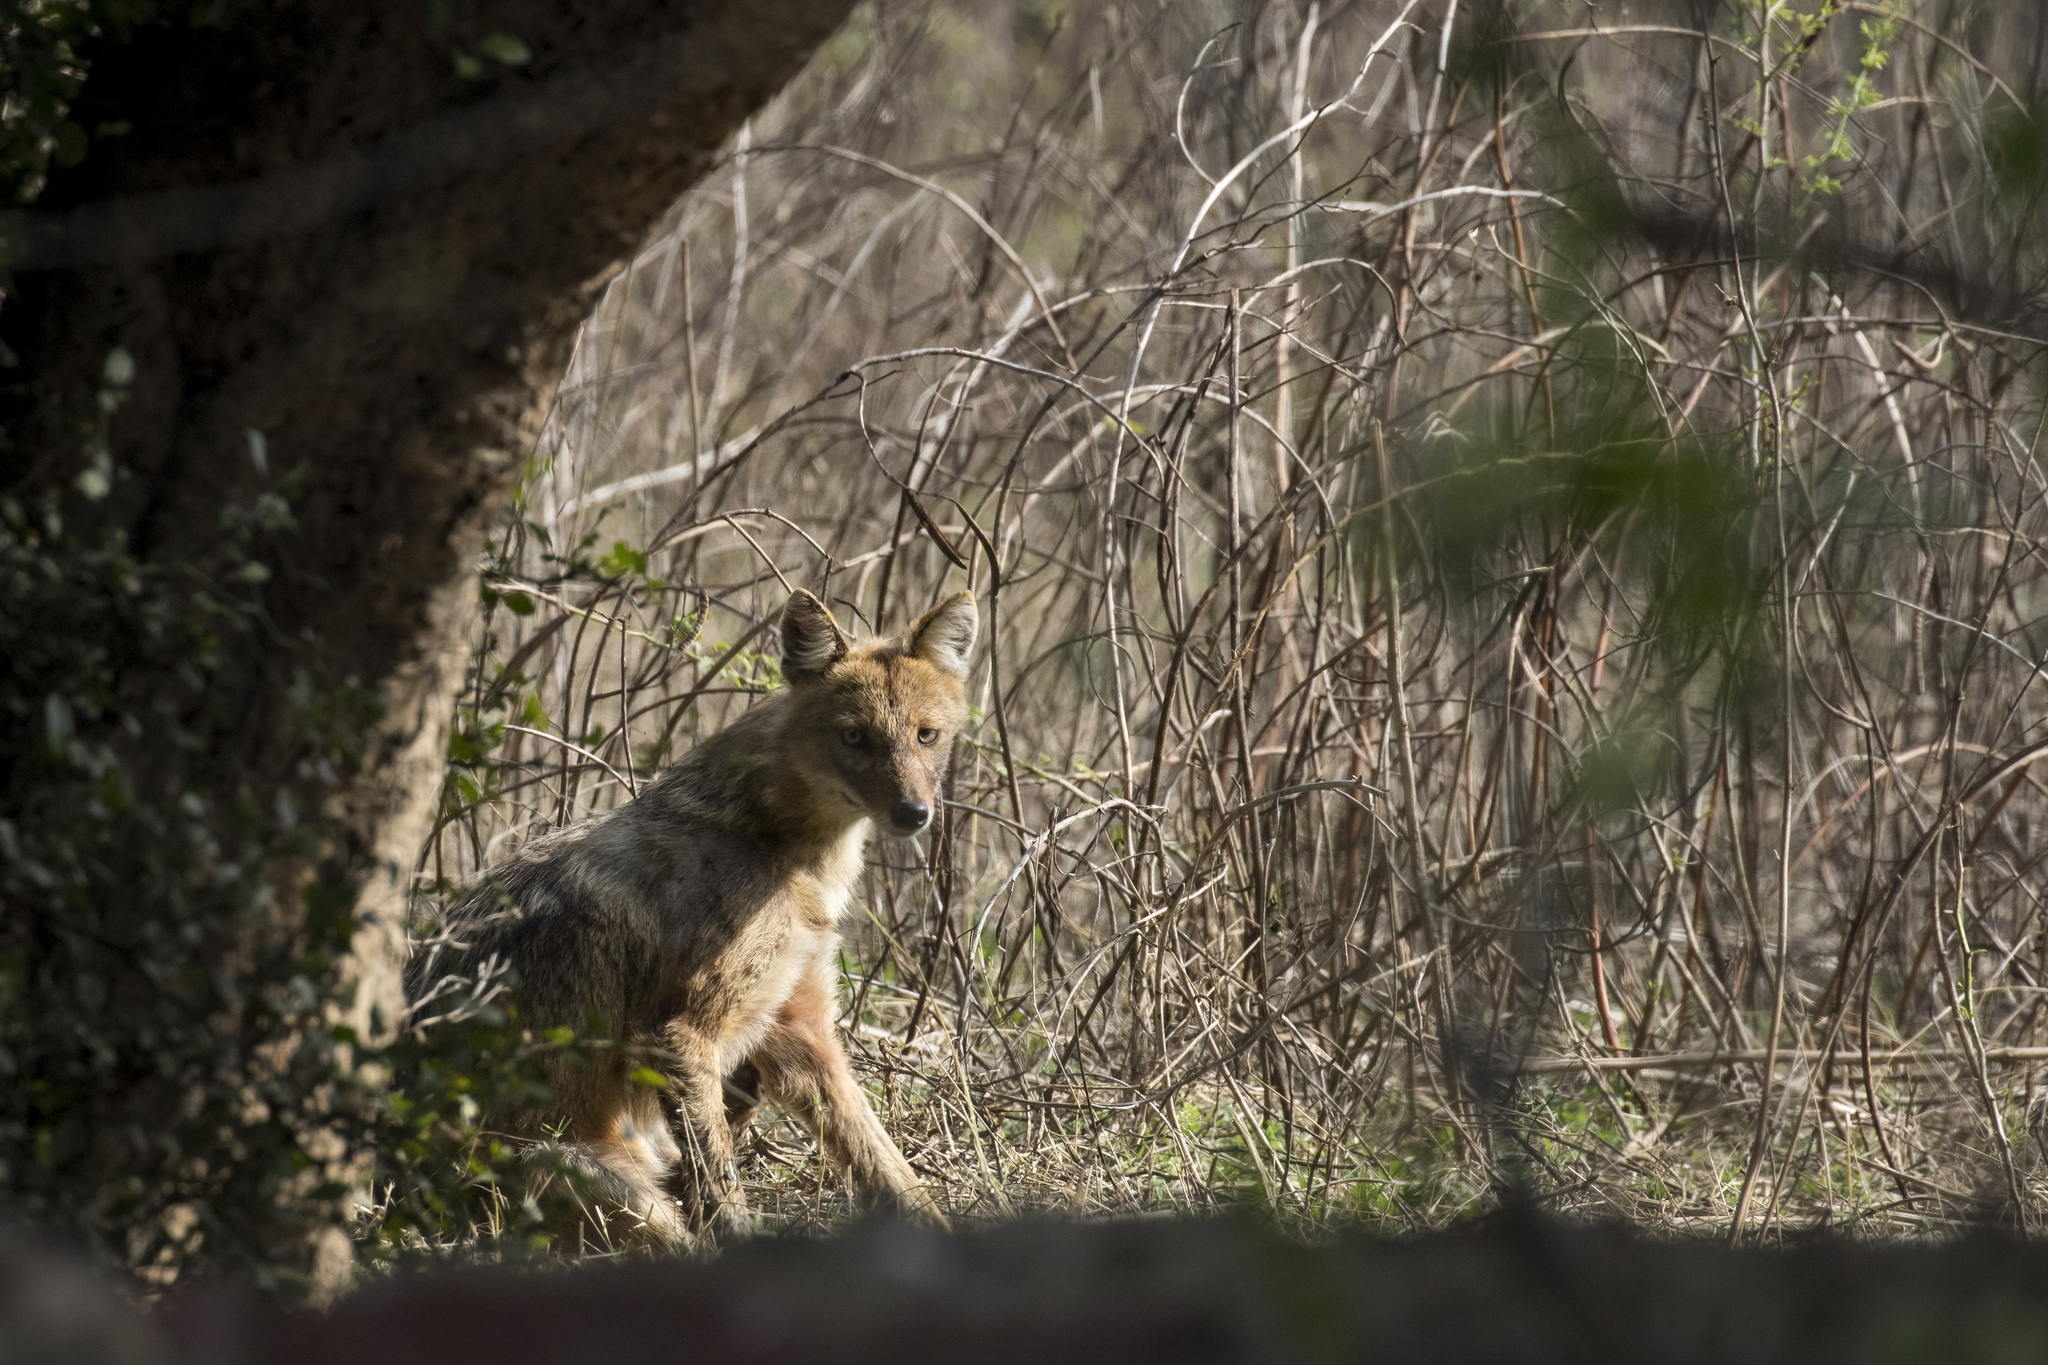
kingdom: Animalia
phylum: Chordata
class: Mammalia
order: Carnivora
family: Canidae
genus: Canis
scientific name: Canis aureus
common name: Golden jackal
